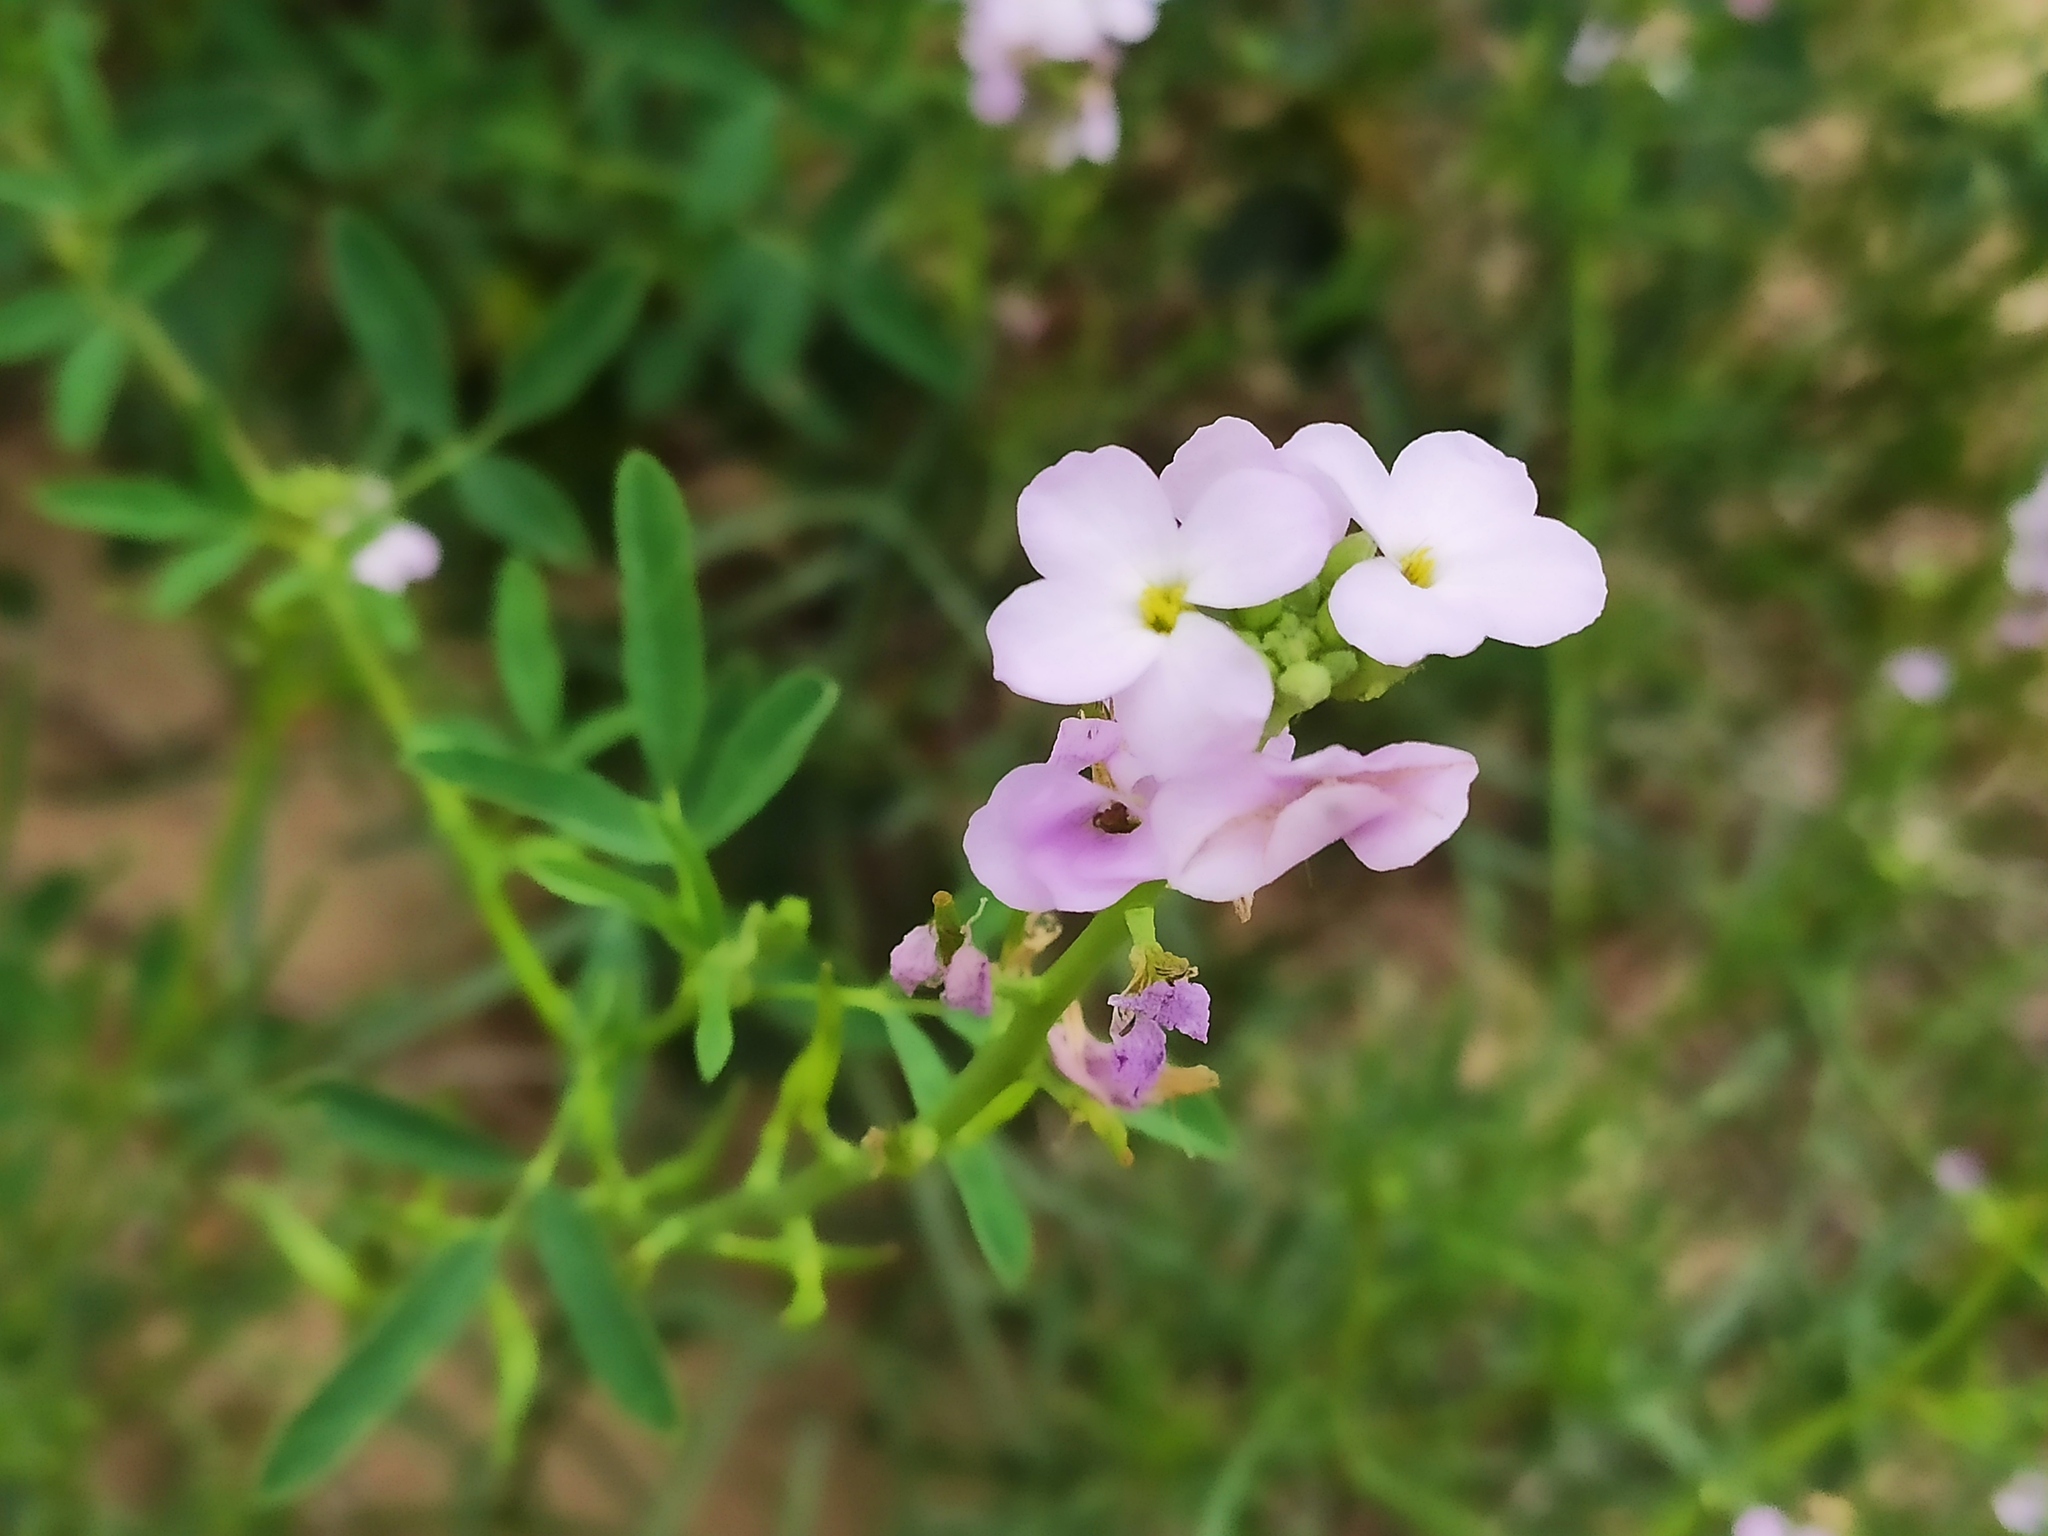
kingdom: Plantae
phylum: Tracheophyta
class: Magnoliopsida
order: Brassicales
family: Brassicaceae
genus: Cakile
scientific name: Cakile maritima
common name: Sea rocket
